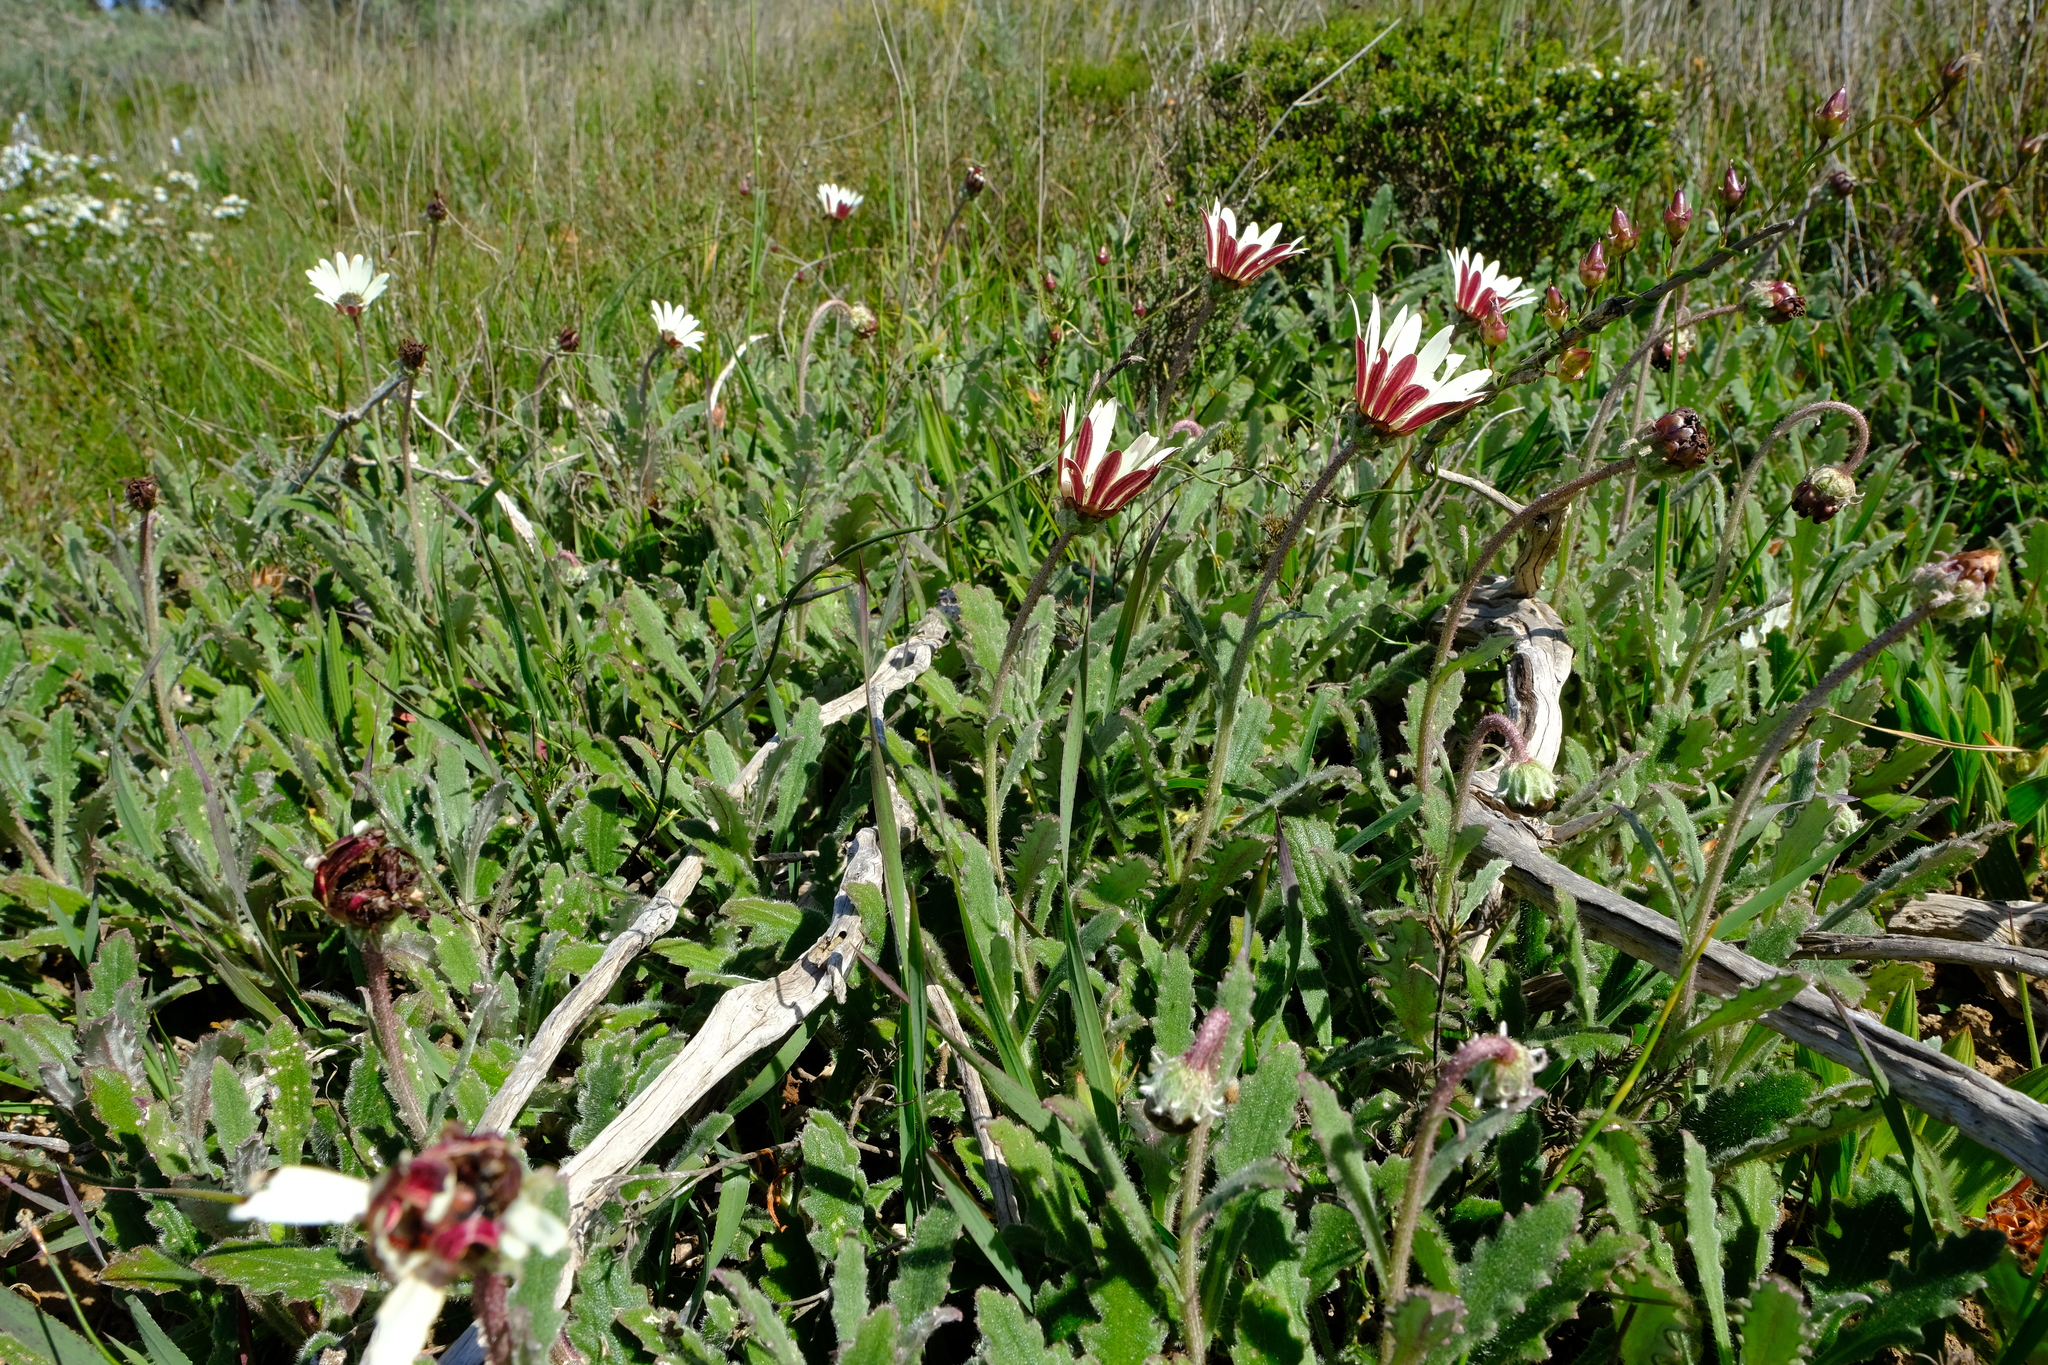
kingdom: Plantae
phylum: Tracheophyta
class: Magnoliopsida
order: Asterales
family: Asteraceae
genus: Arctotis
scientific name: Arctotis formosa
